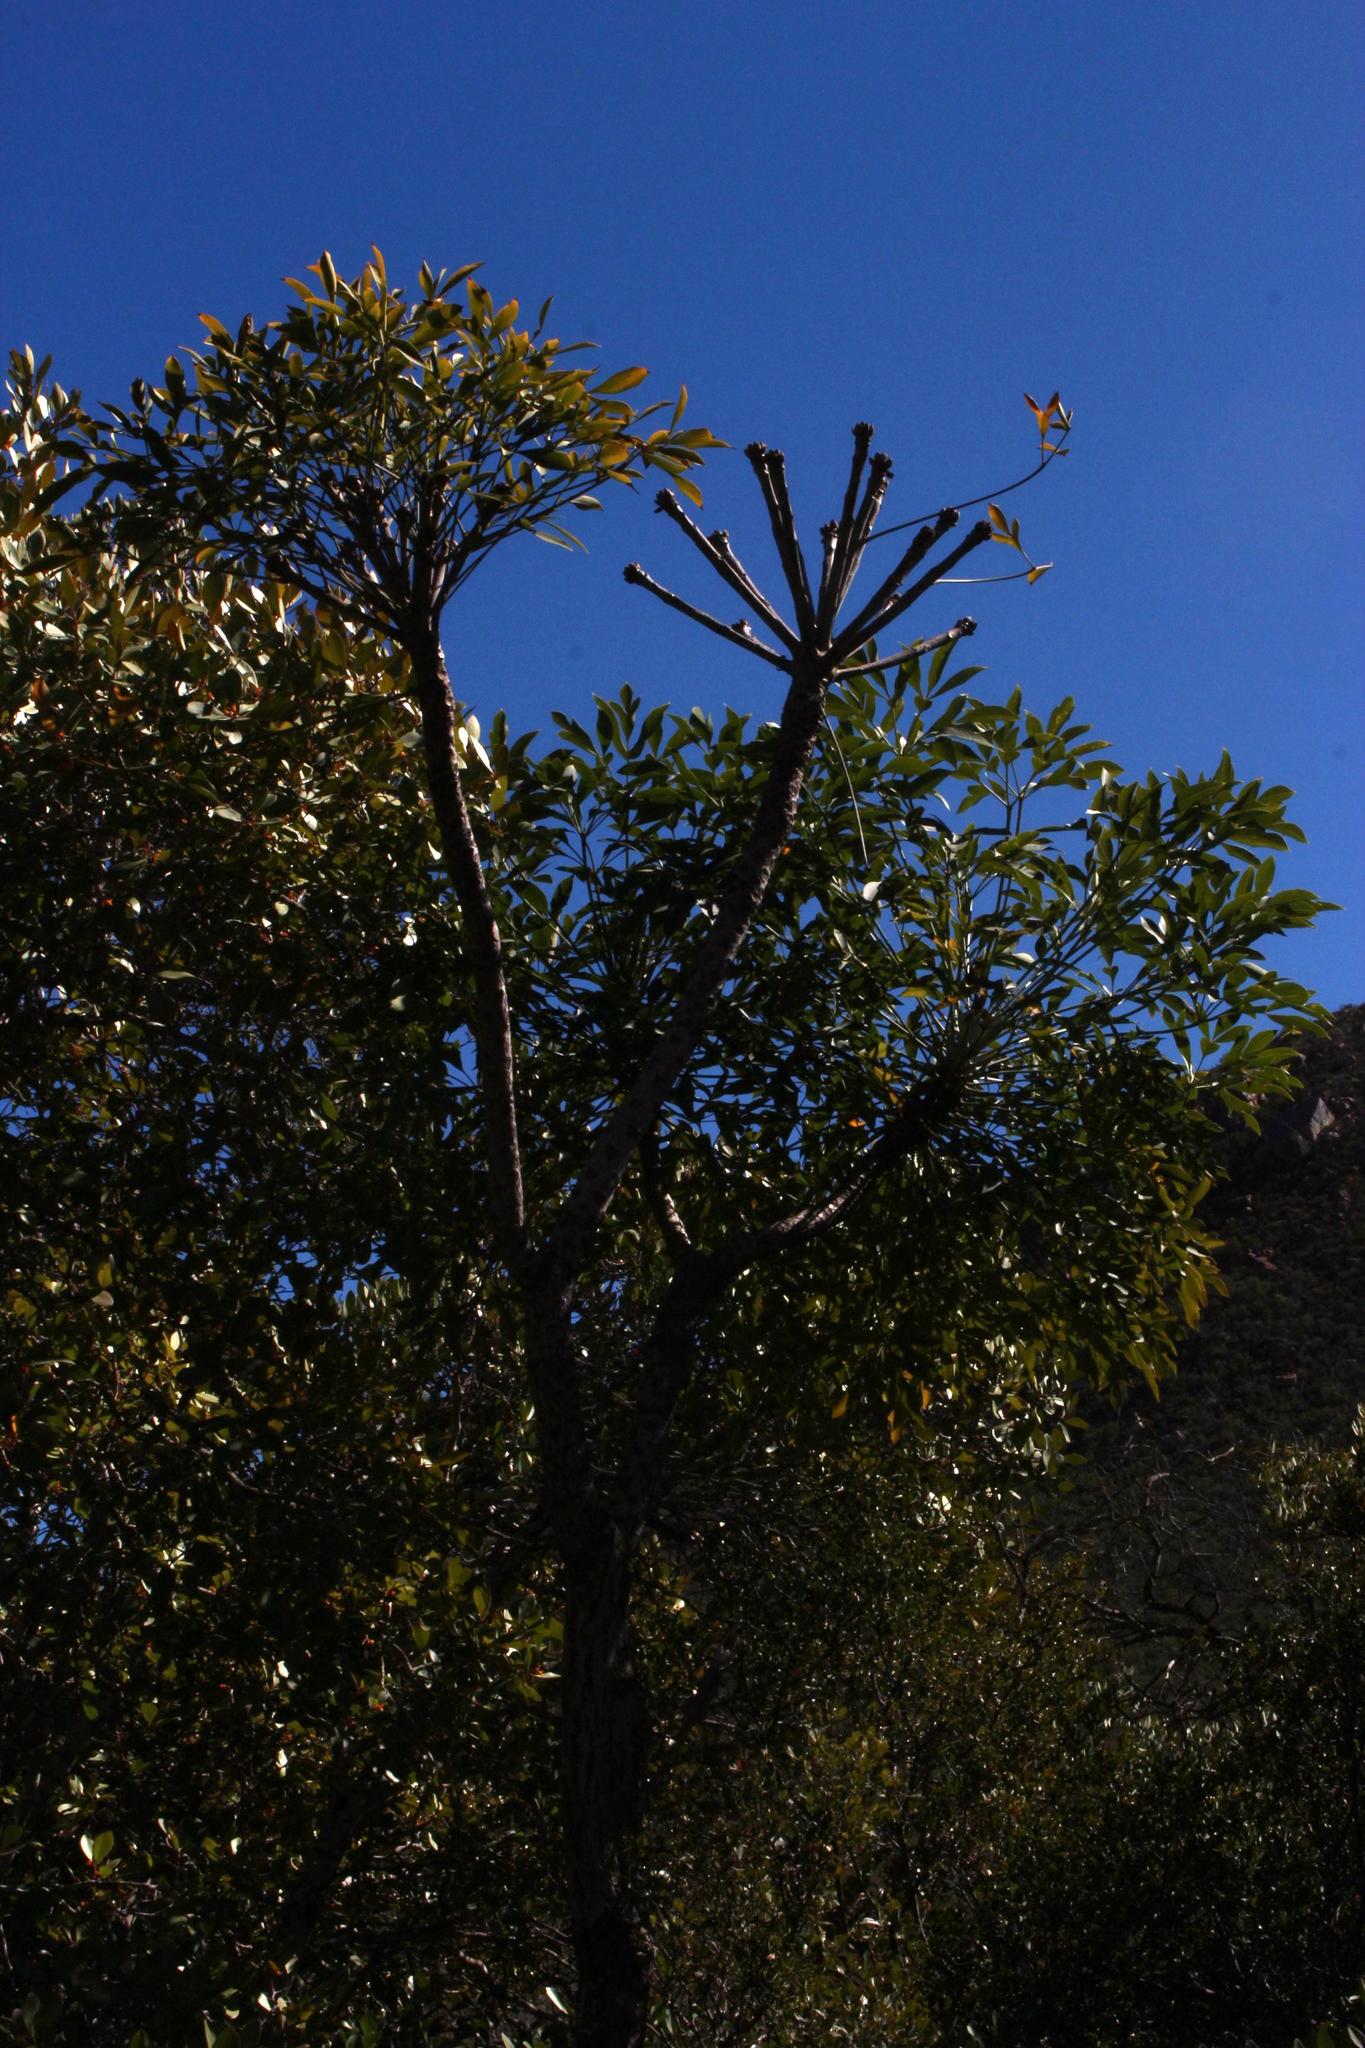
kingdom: Plantae
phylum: Tracheophyta
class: Magnoliopsida
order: Apiales
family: Araliaceae
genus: Cussonia
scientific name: Cussonia spicata
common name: Common cabbagetree
